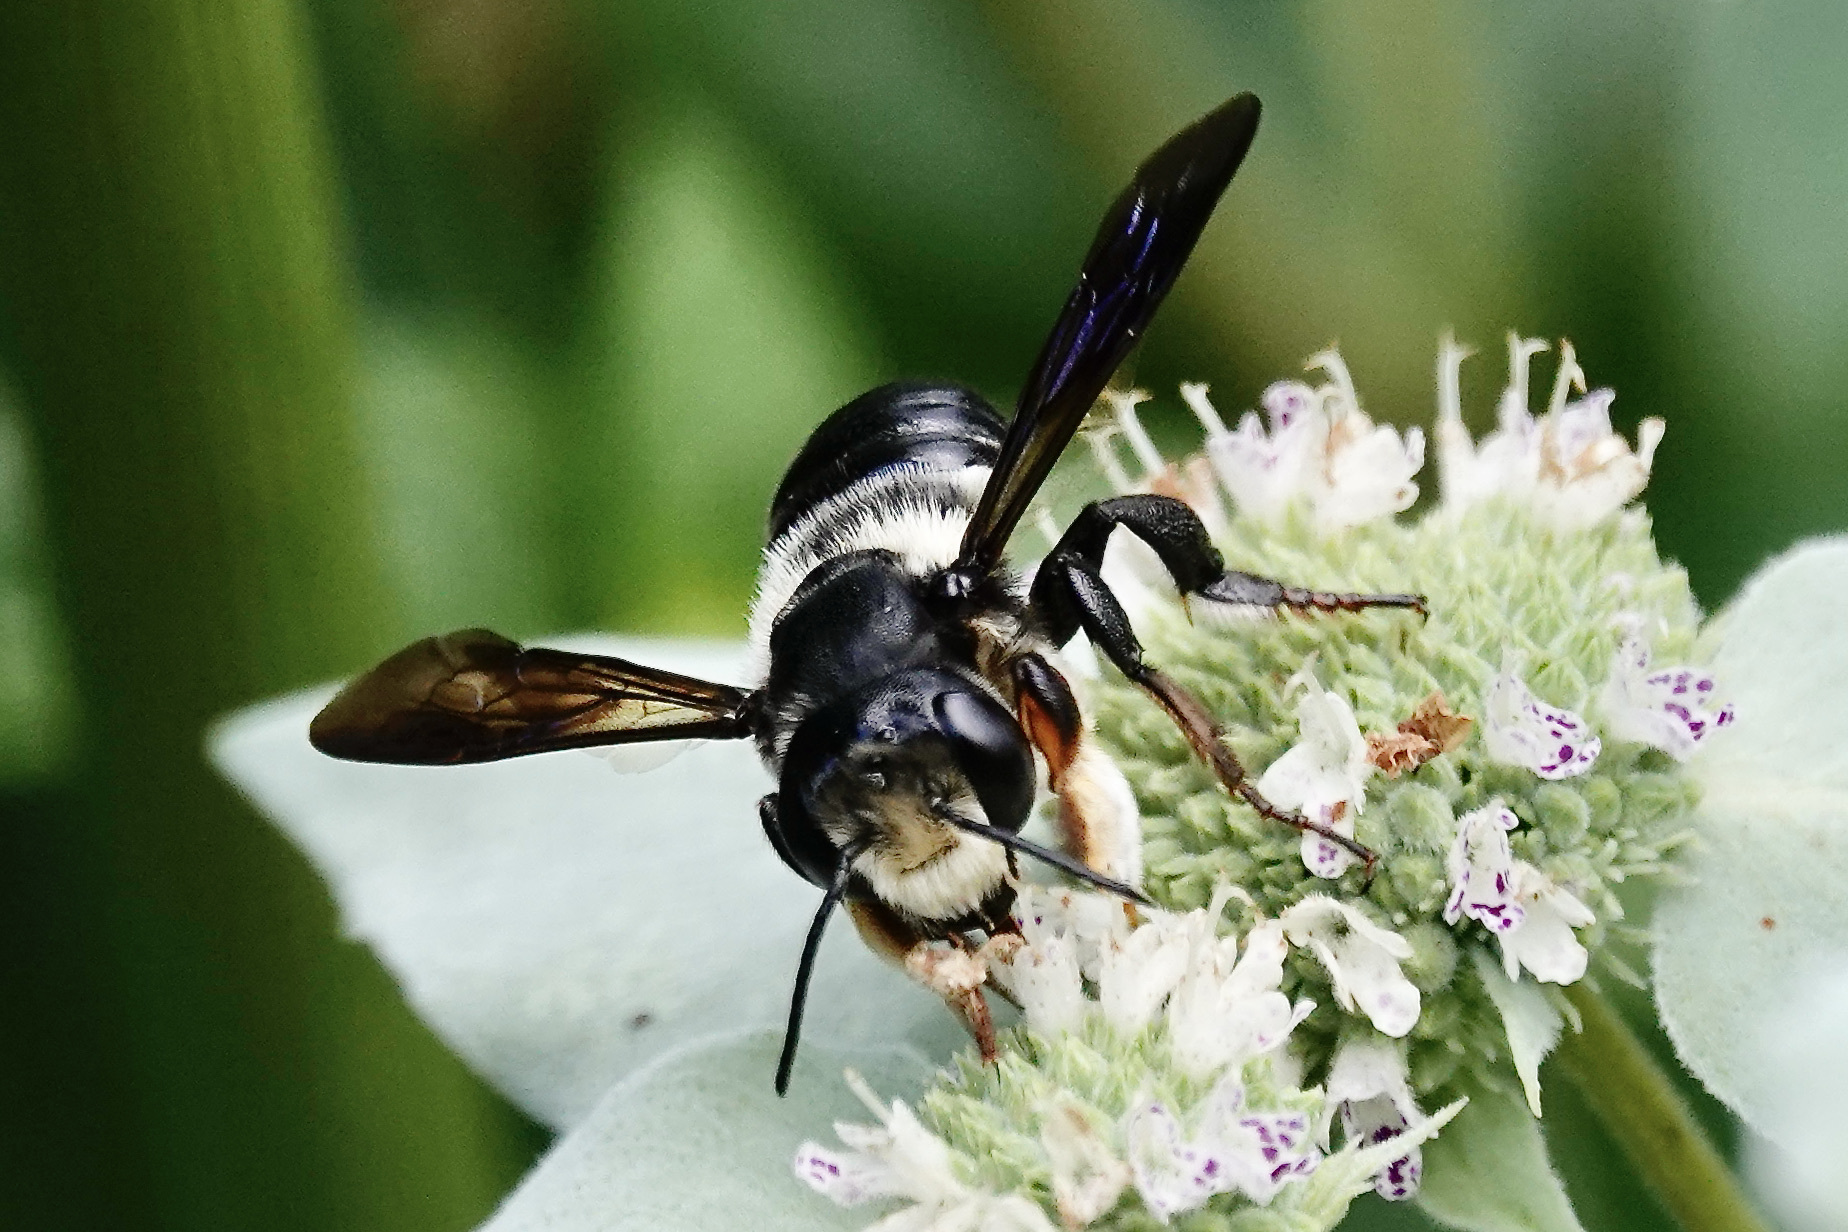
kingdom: Animalia
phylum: Arthropoda
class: Insecta
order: Hymenoptera
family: Megachilidae
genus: Megachile
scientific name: Megachile xylocopoides
